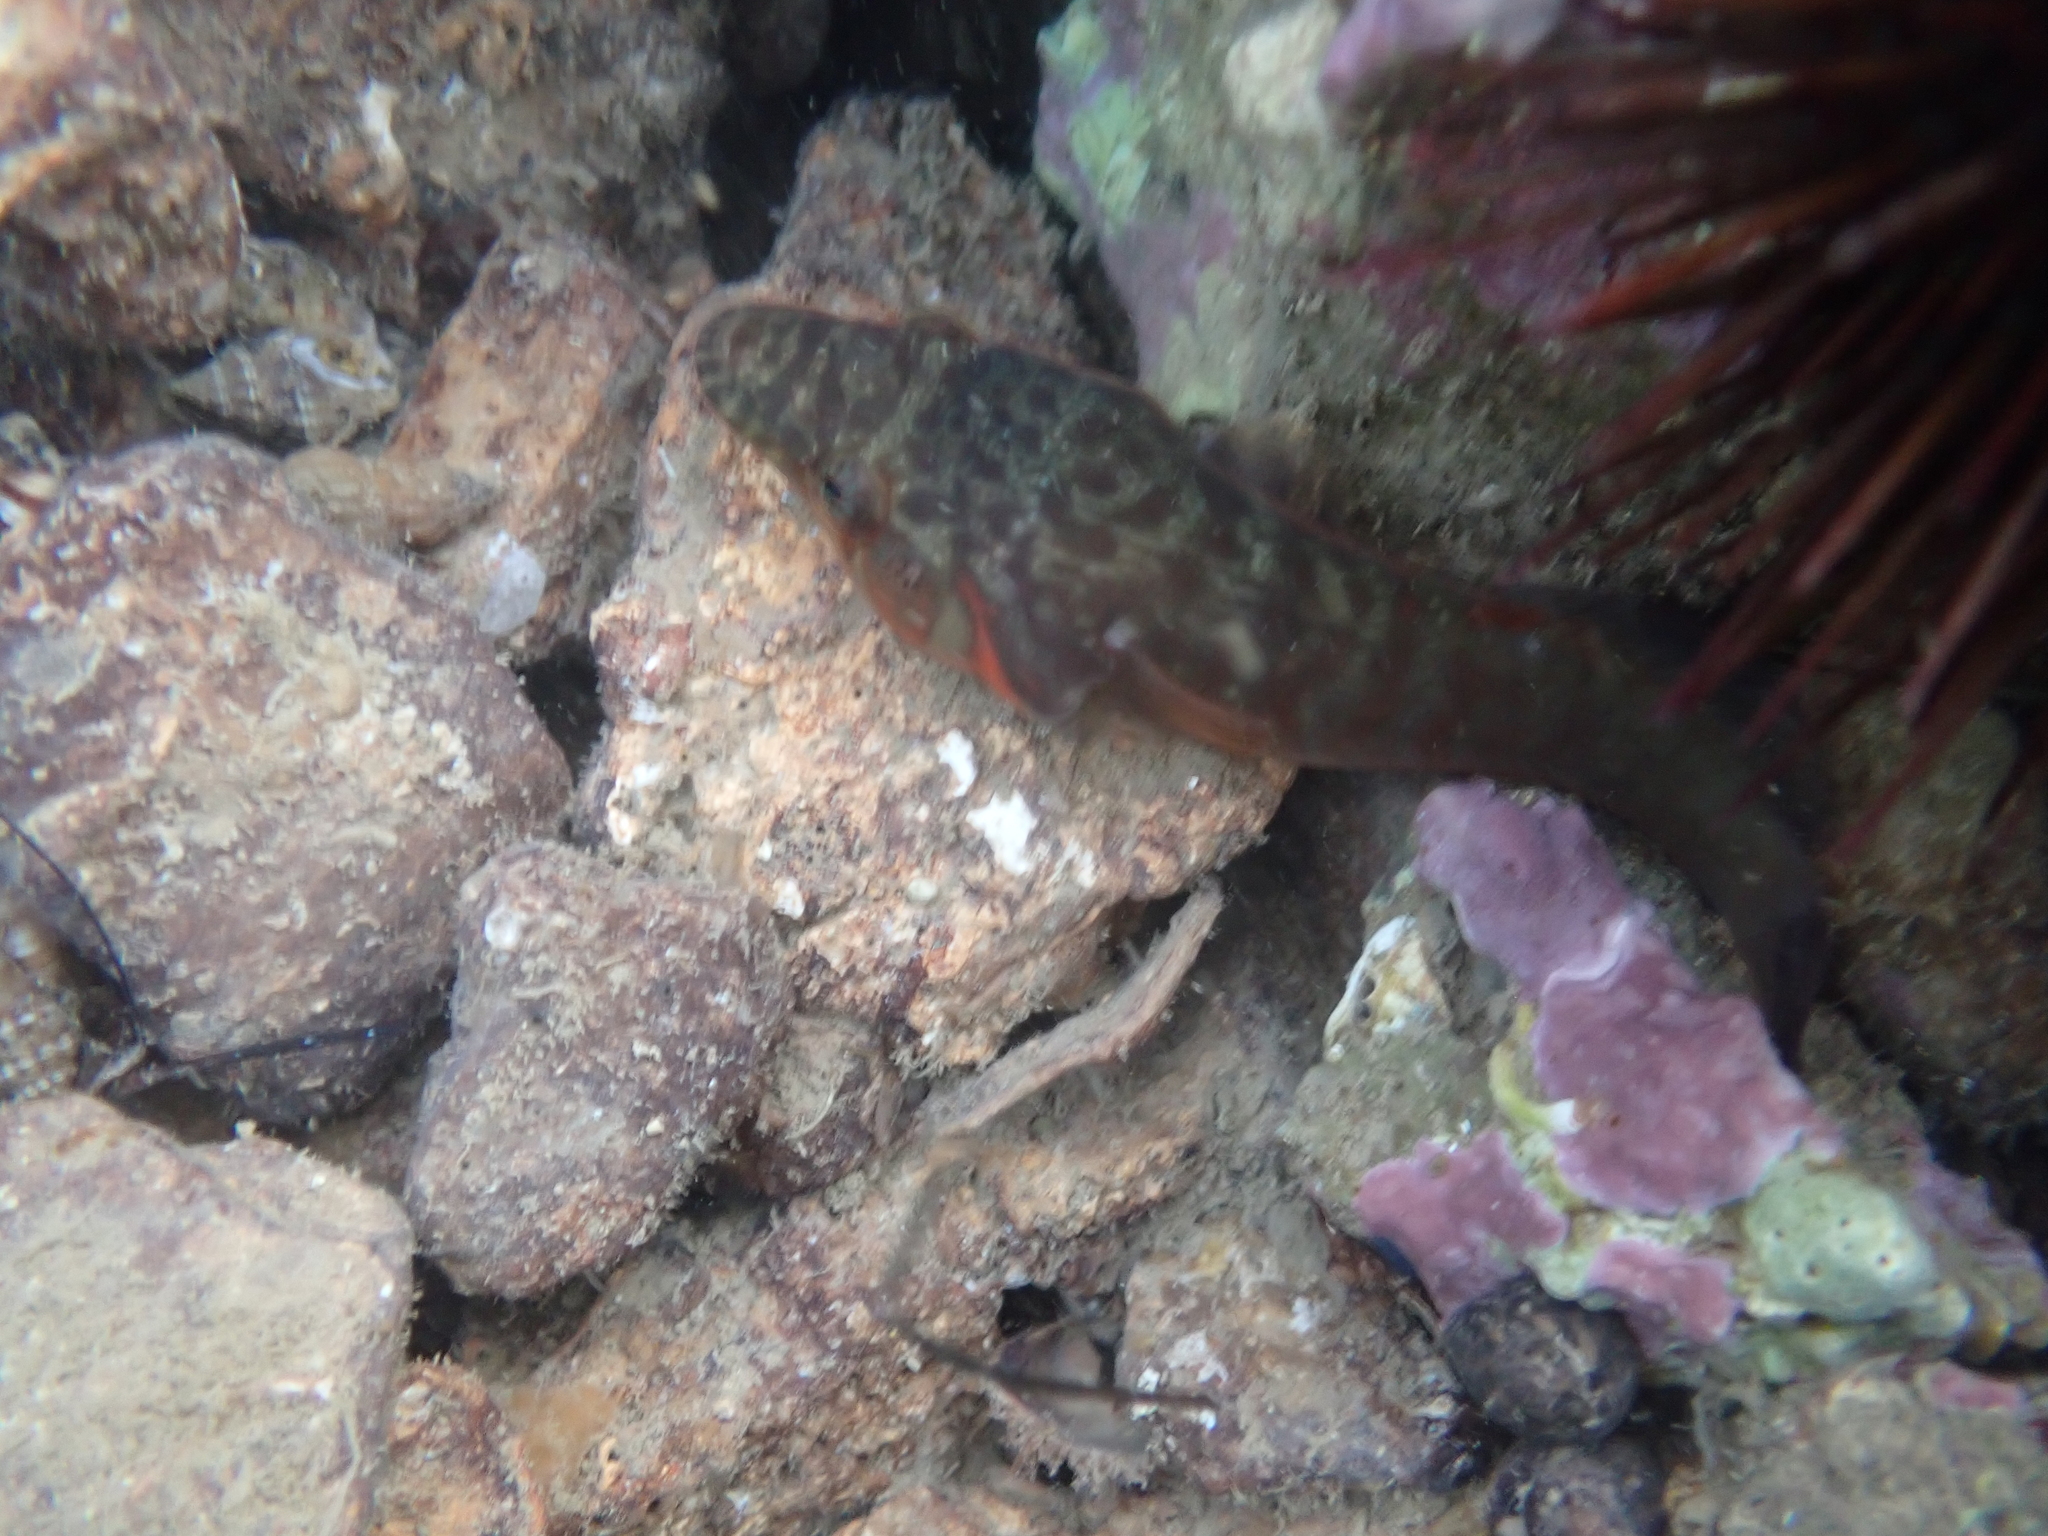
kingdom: Animalia
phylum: Chordata
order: Gobiesociformes
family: Gobiesocidae
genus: Lepadogaster
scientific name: Lepadogaster candolii
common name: Connemarra clingfish
